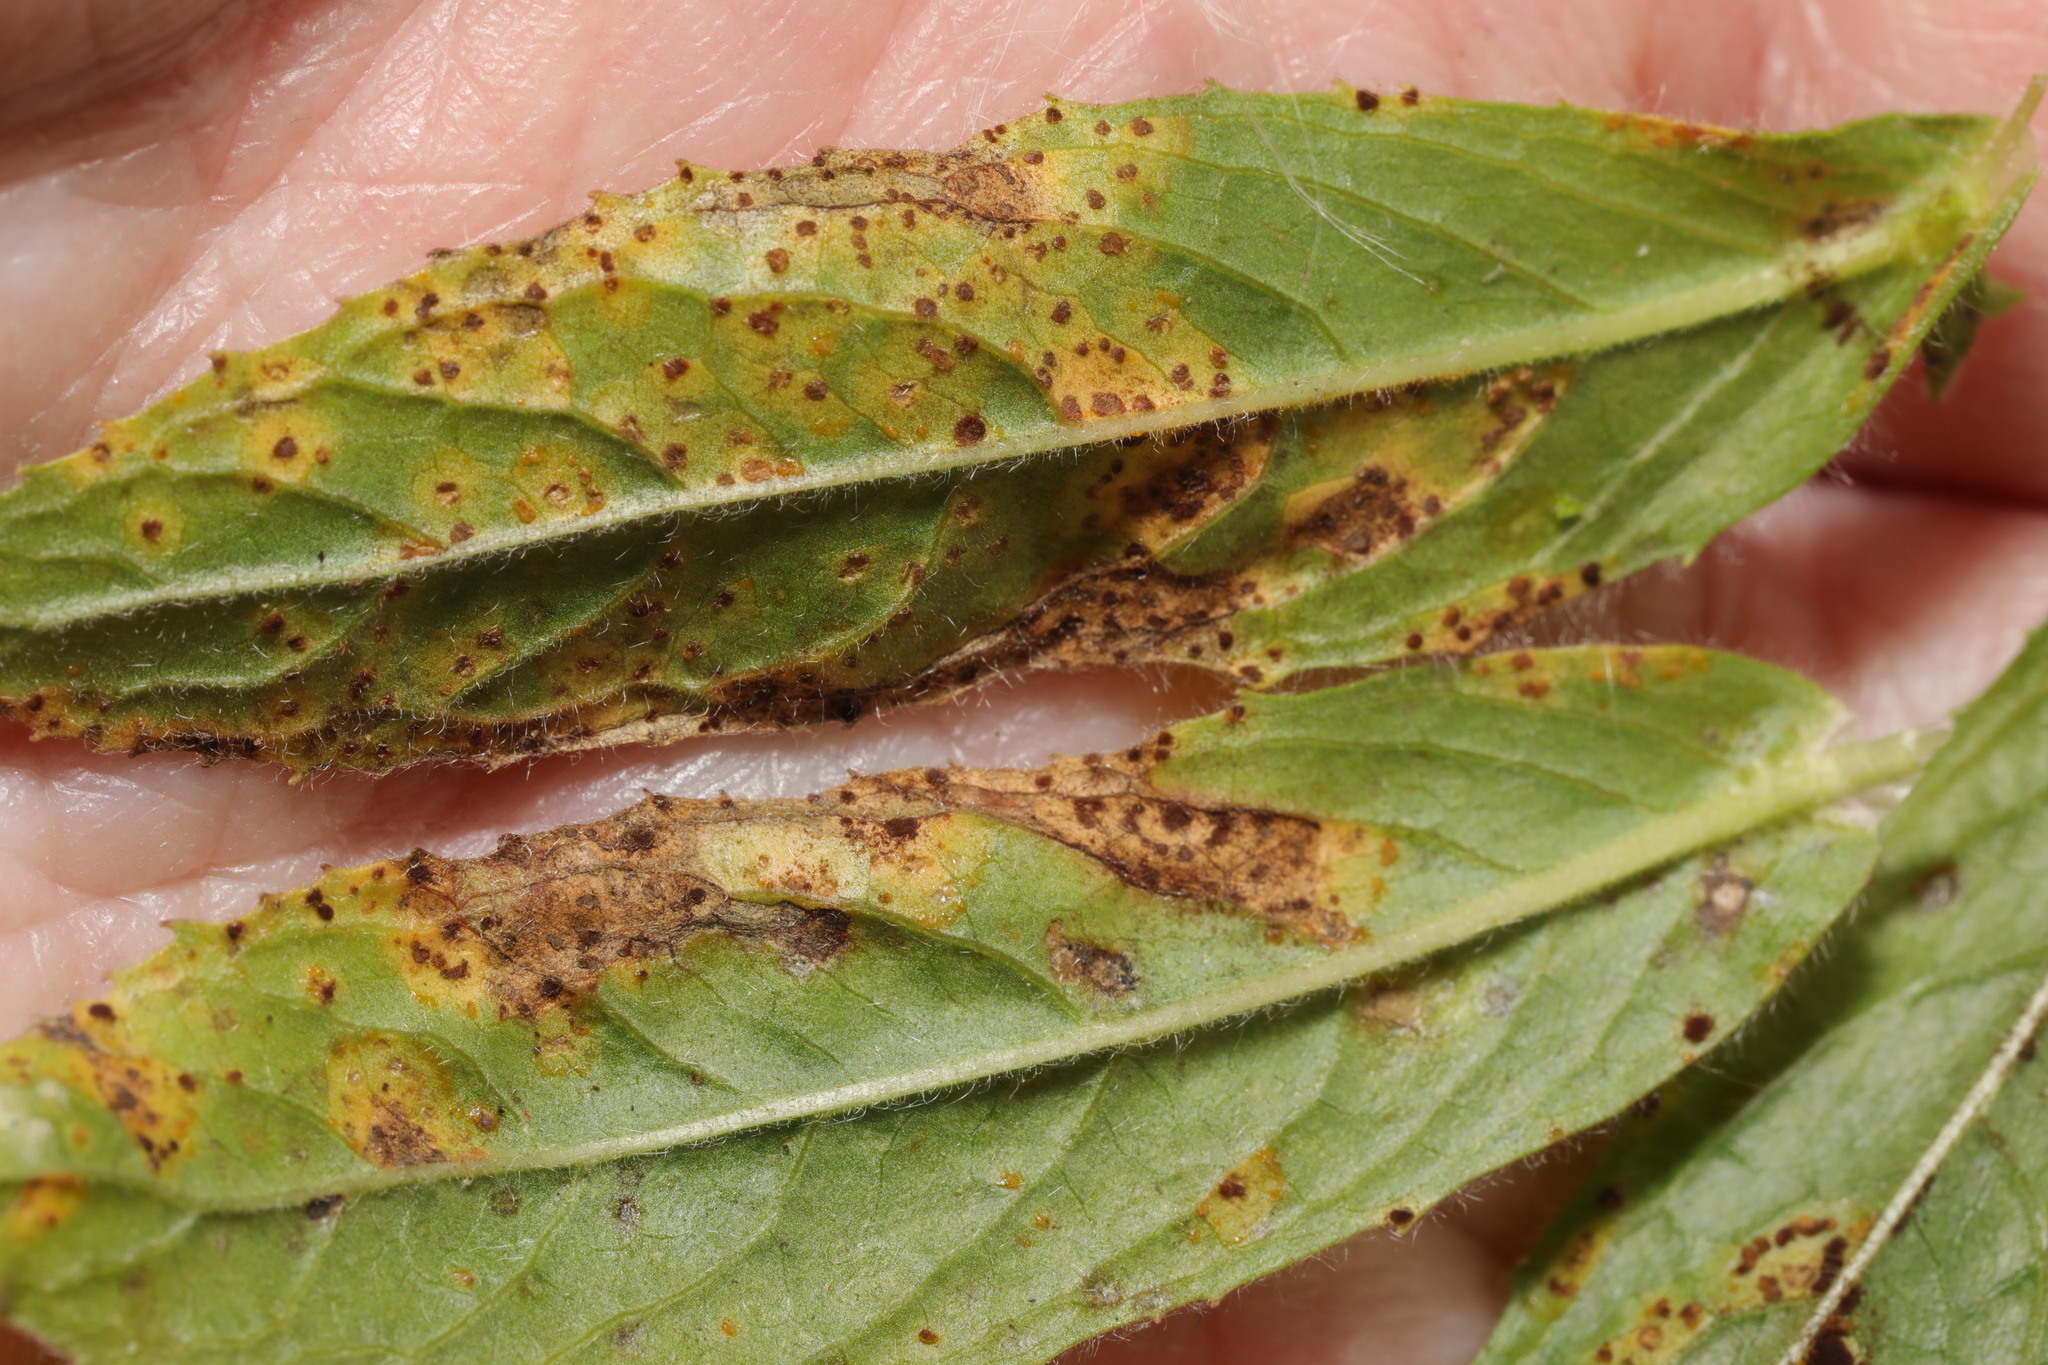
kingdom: Fungi
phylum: Basidiomycota
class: Pucciniomycetes
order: Pucciniales
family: Pucciniaceae
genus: Puccinia
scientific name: Puccinia pulverulenta
